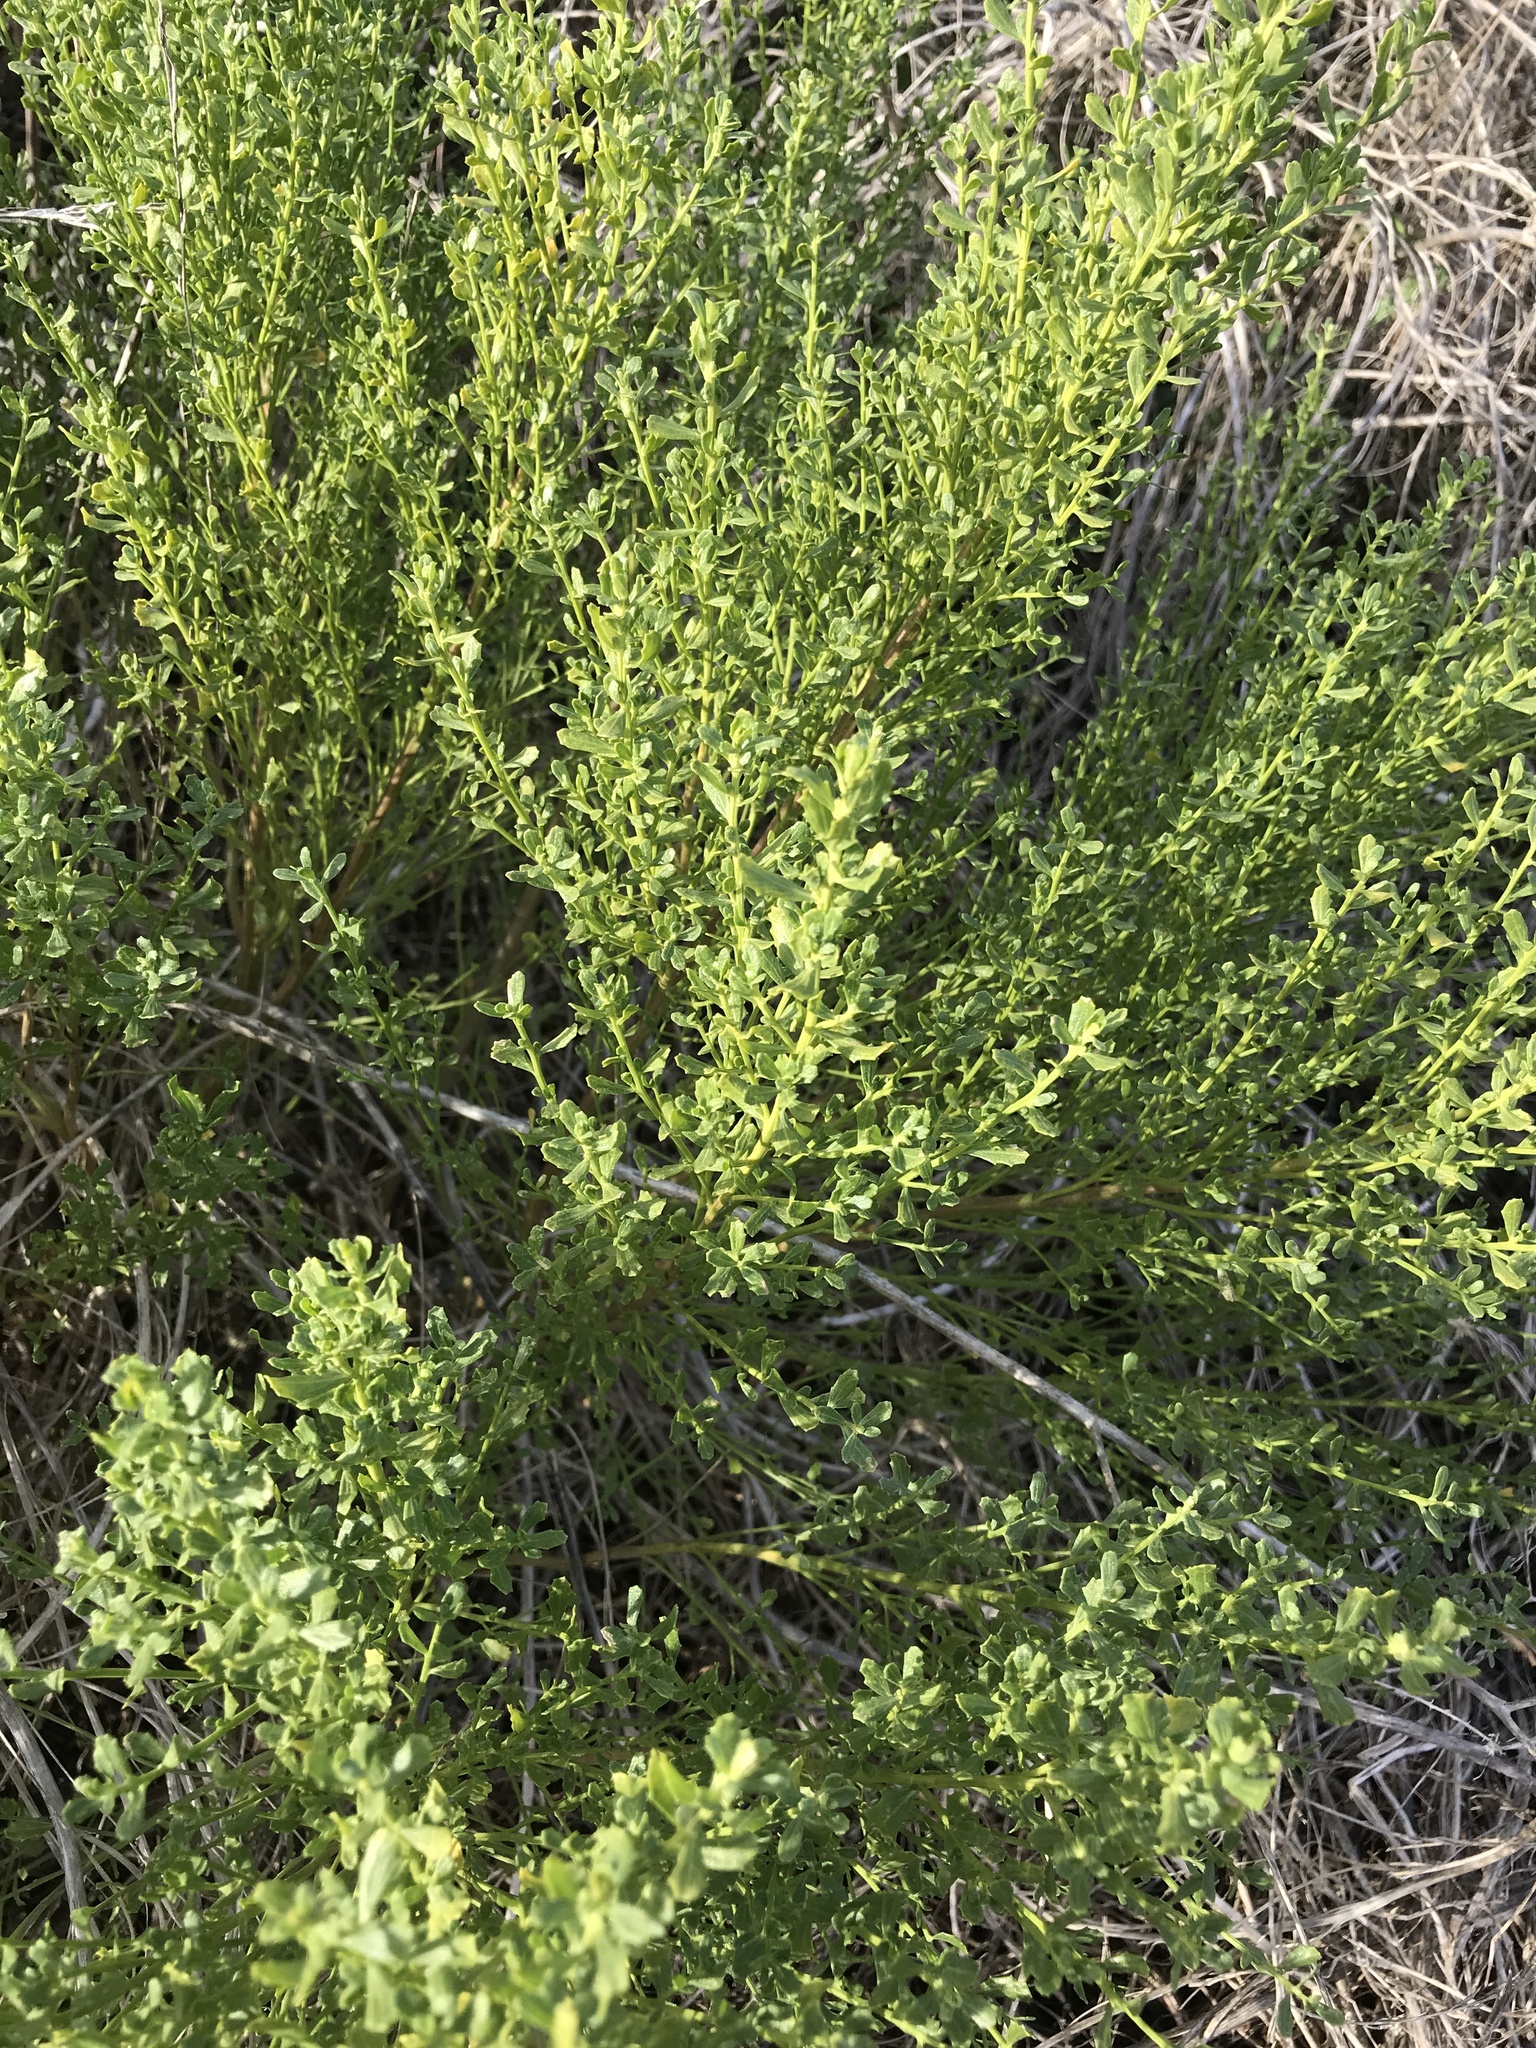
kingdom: Plantae
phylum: Tracheophyta
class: Magnoliopsida
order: Asterales
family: Asteraceae
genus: Baccharis
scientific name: Baccharis pilularis
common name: Coyotebrush
